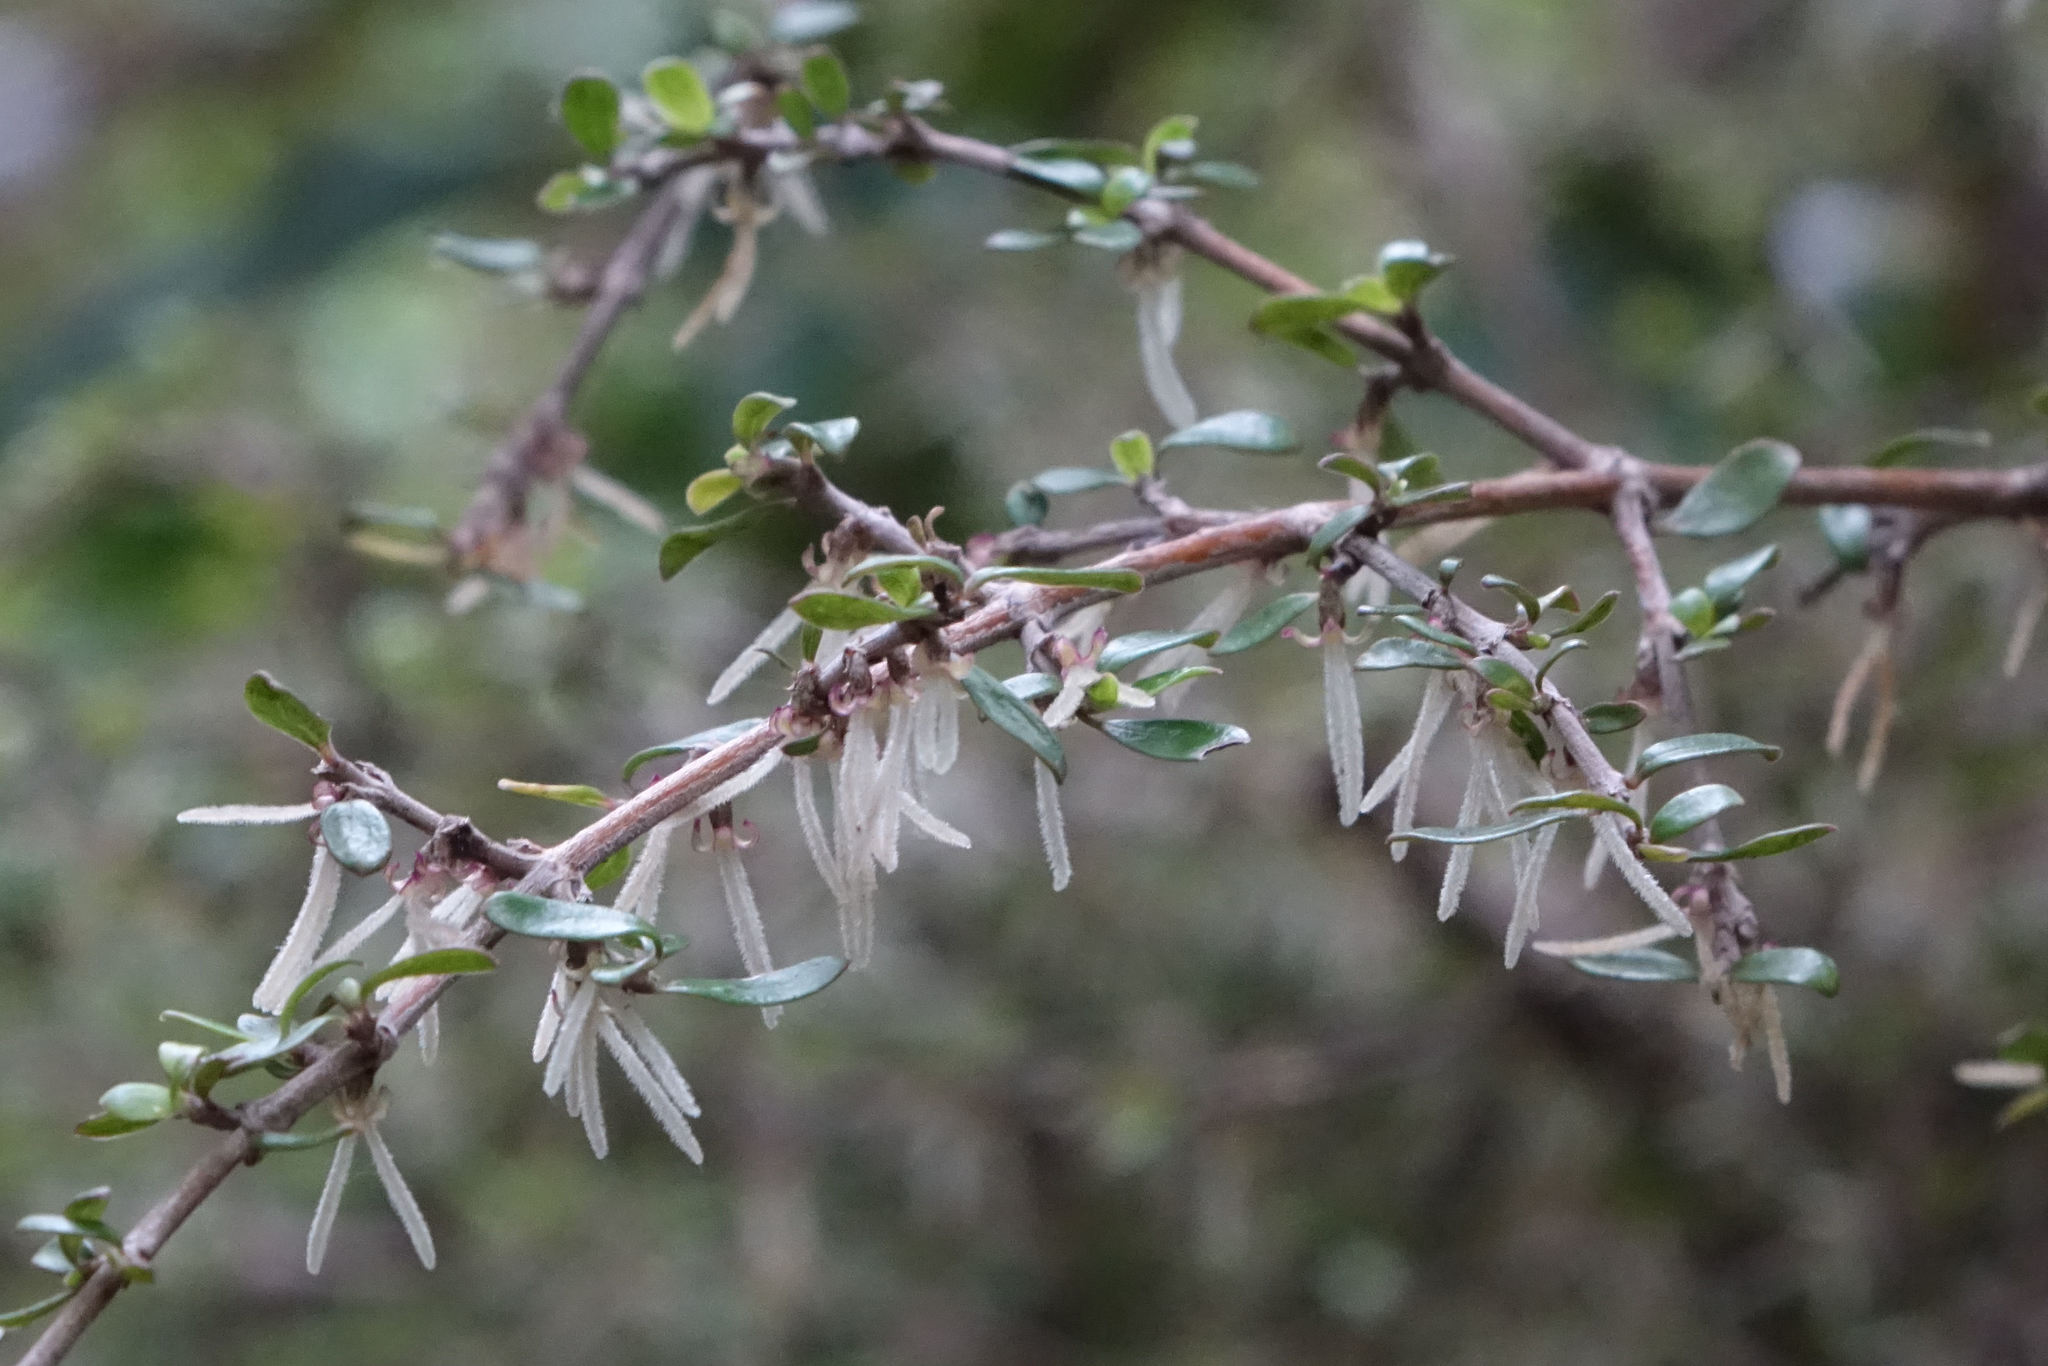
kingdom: Plantae
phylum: Tracheophyta
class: Magnoliopsida
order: Gentianales
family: Rubiaceae
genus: Coprosma
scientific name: Coprosma dumosa
